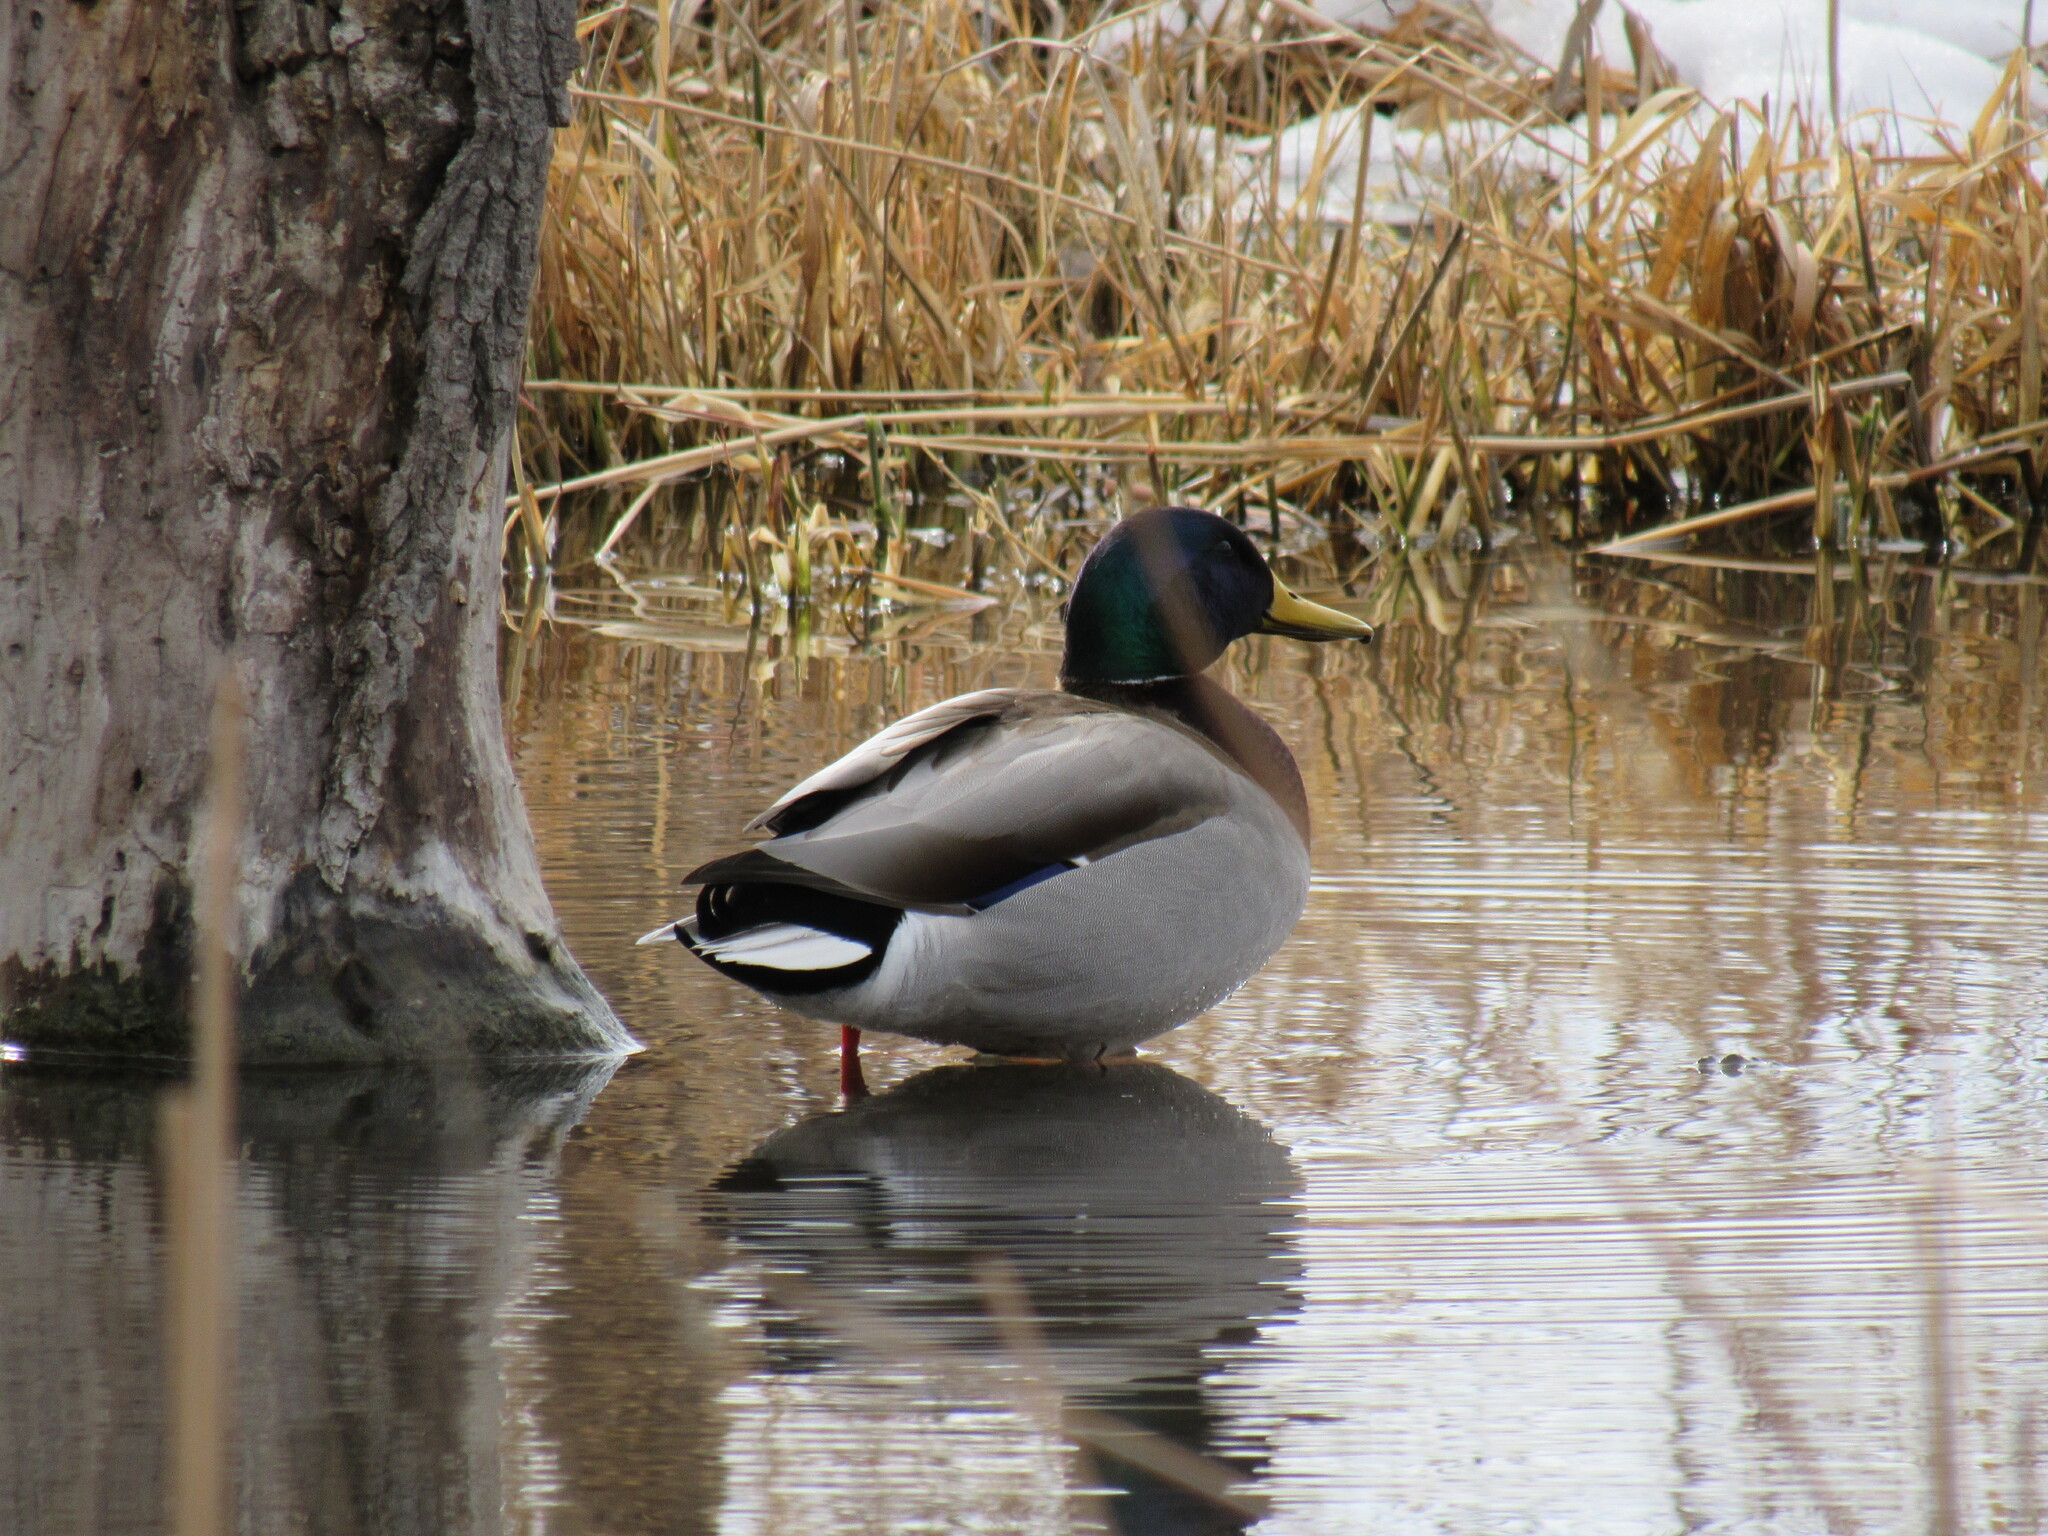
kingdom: Animalia
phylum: Chordata
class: Aves
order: Anseriformes
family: Anatidae
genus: Anas
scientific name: Anas platyrhynchos
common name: Mallard
